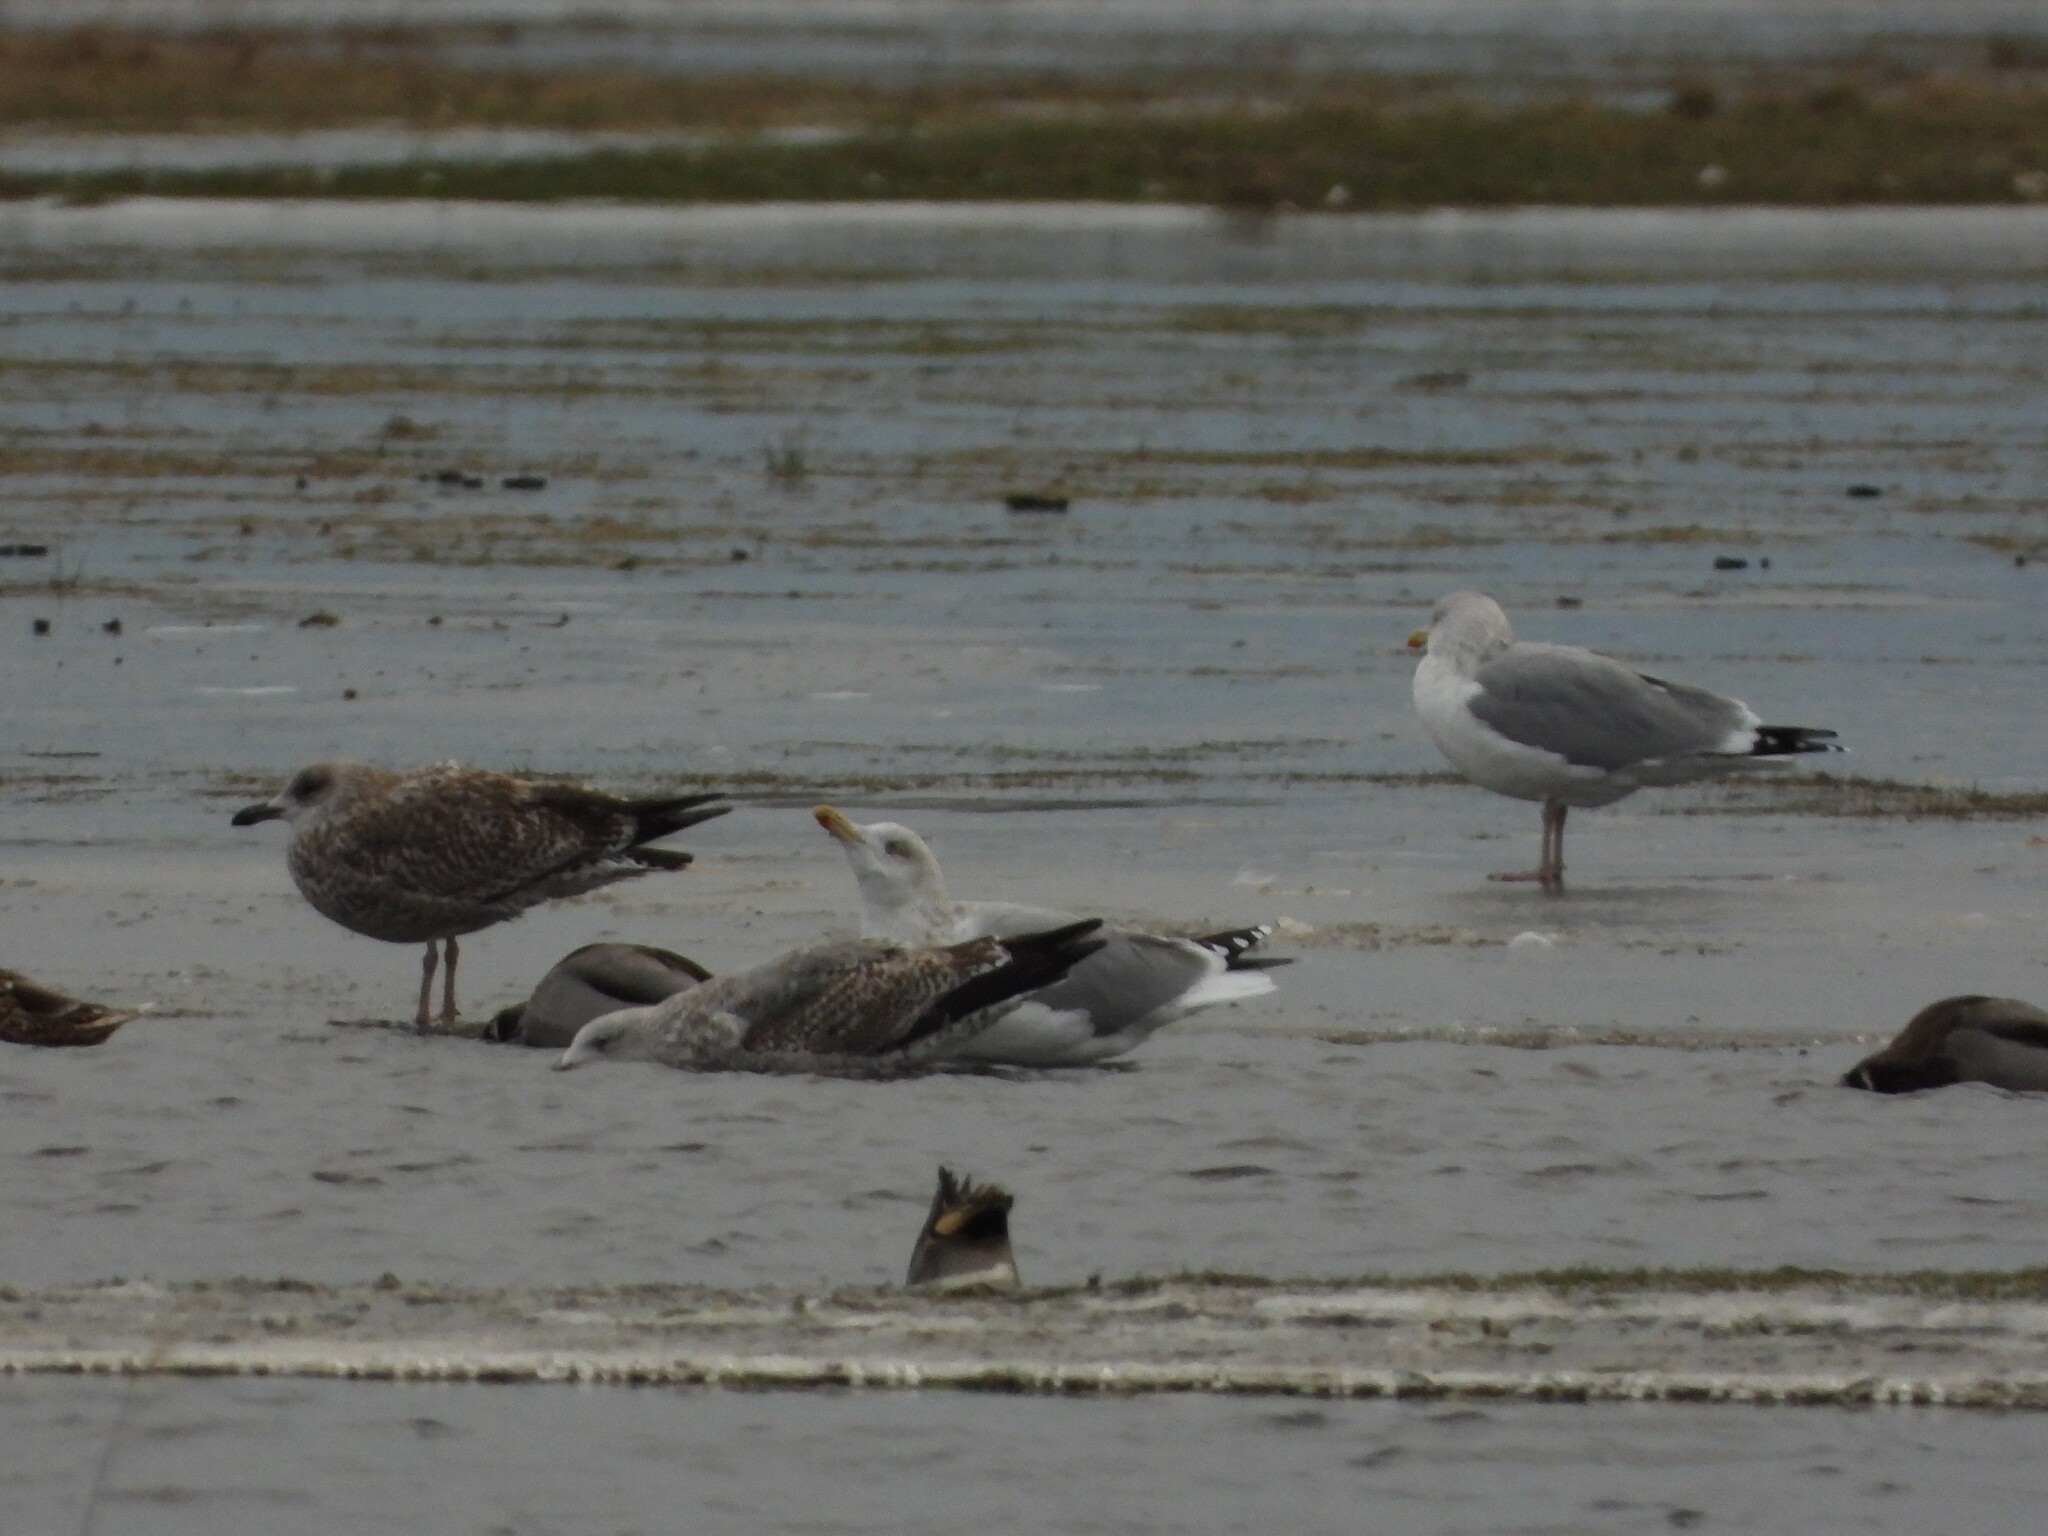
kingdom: Animalia
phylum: Chordata
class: Aves
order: Charadriiformes
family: Laridae
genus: Larus
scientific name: Larus argentatus
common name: Herring gull
